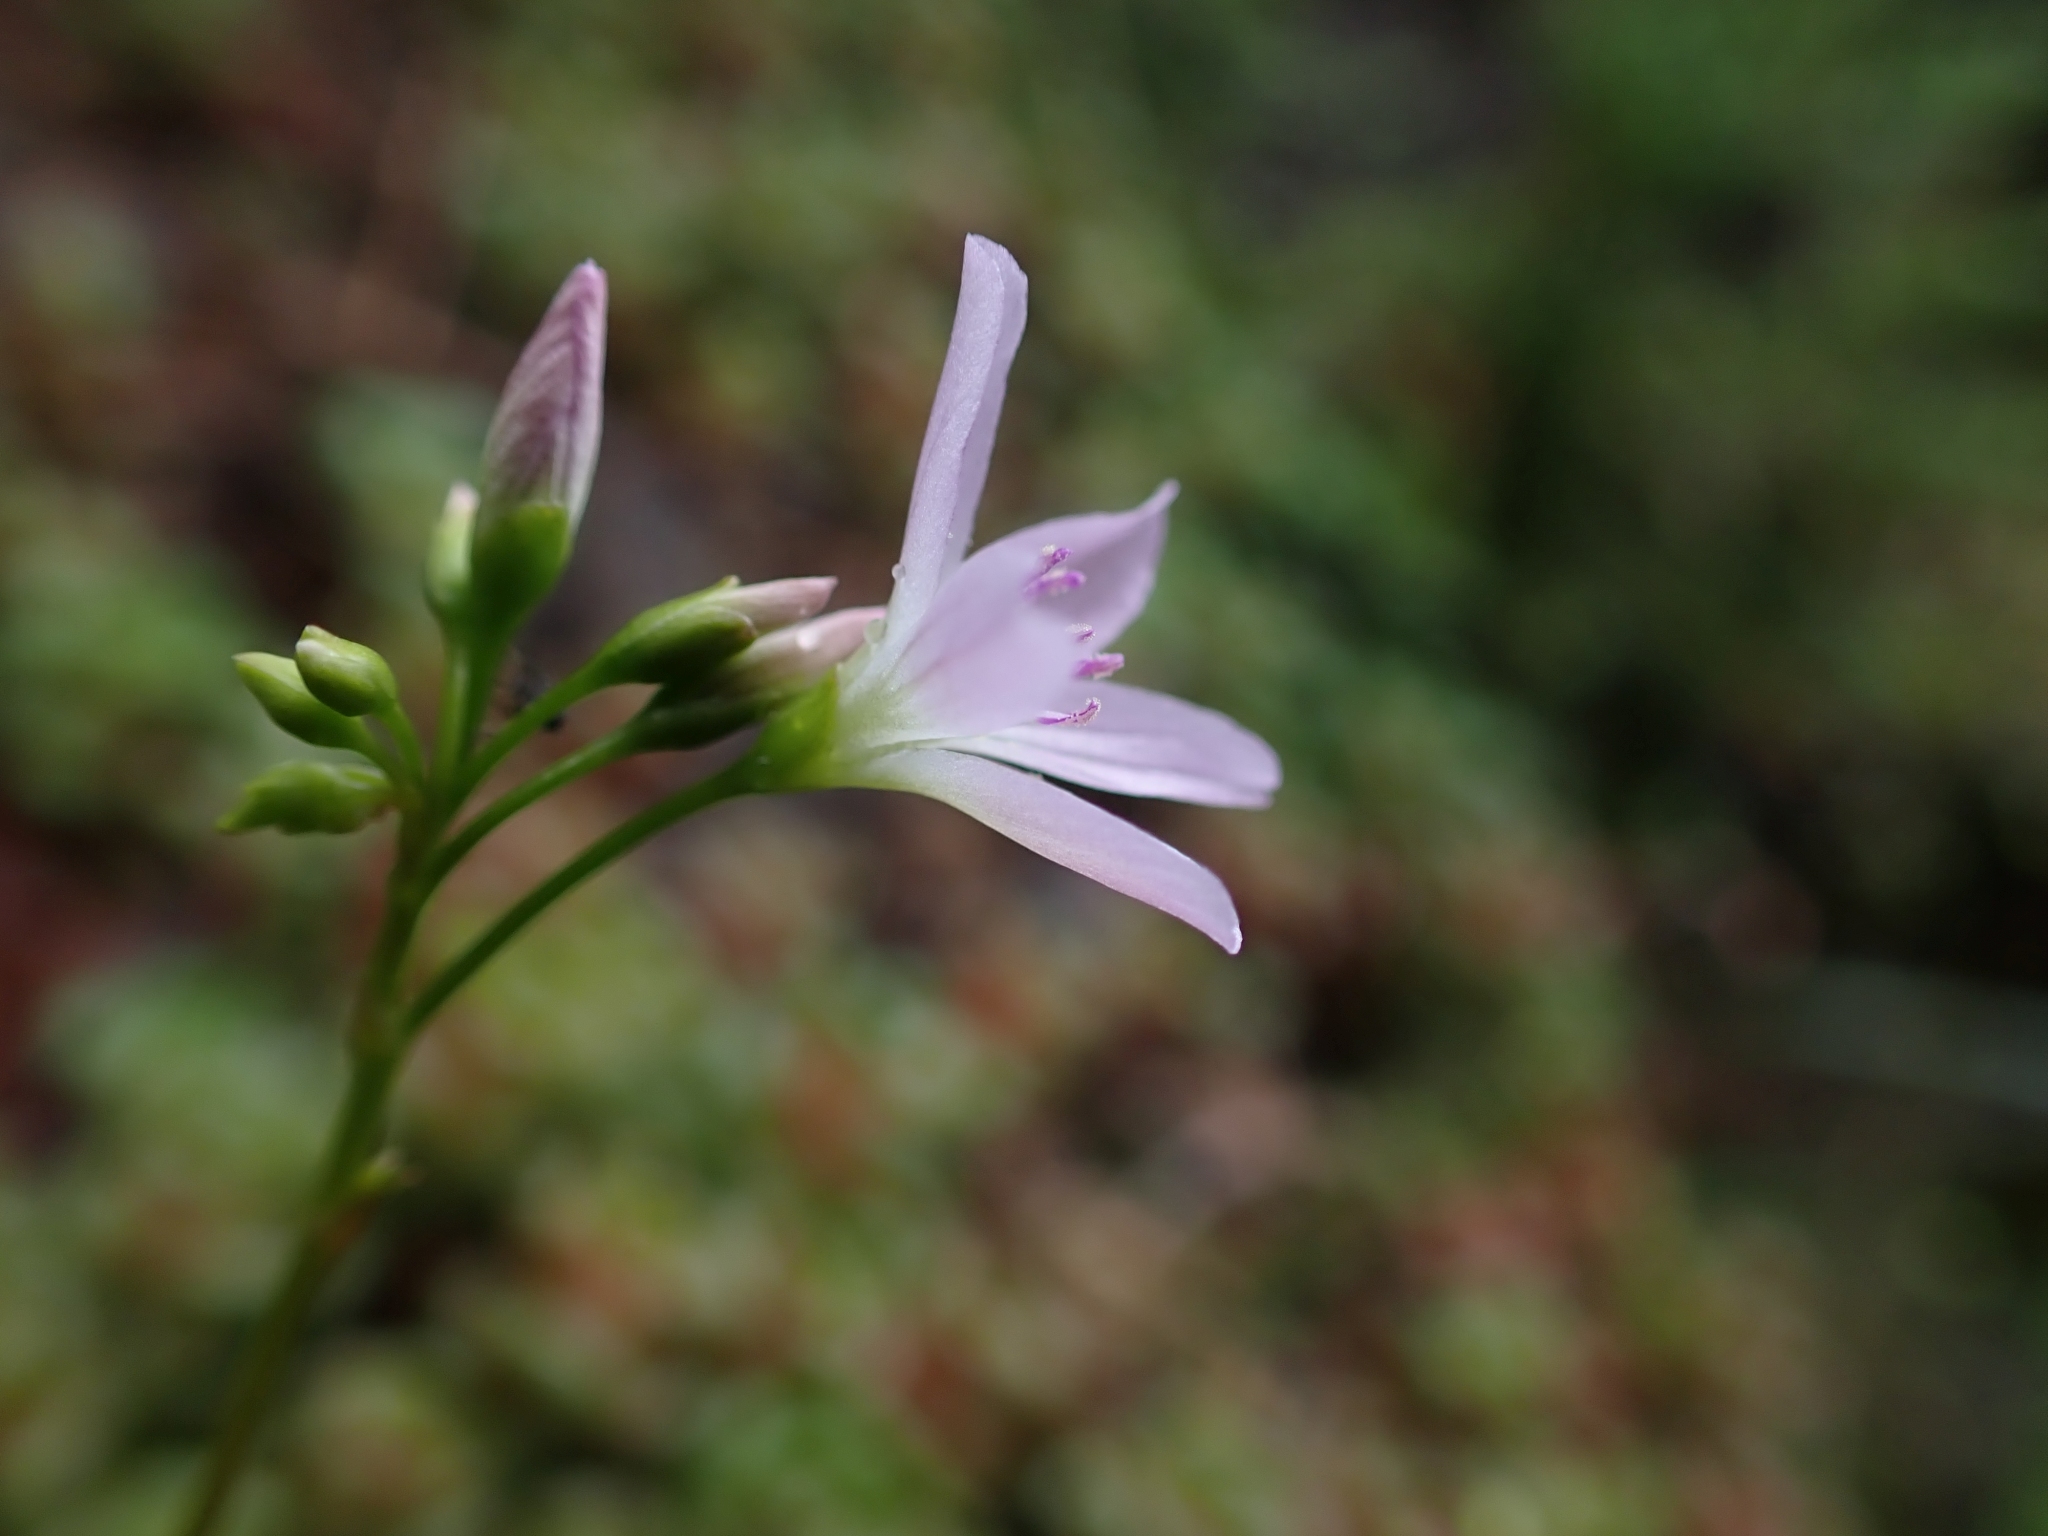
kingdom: Plantae
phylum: Tracheophyta
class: Magnoliopsida
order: Caryophyllales
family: Montiaceae
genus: Montia
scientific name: Montia parvifolia
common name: Small-leaved blinks
